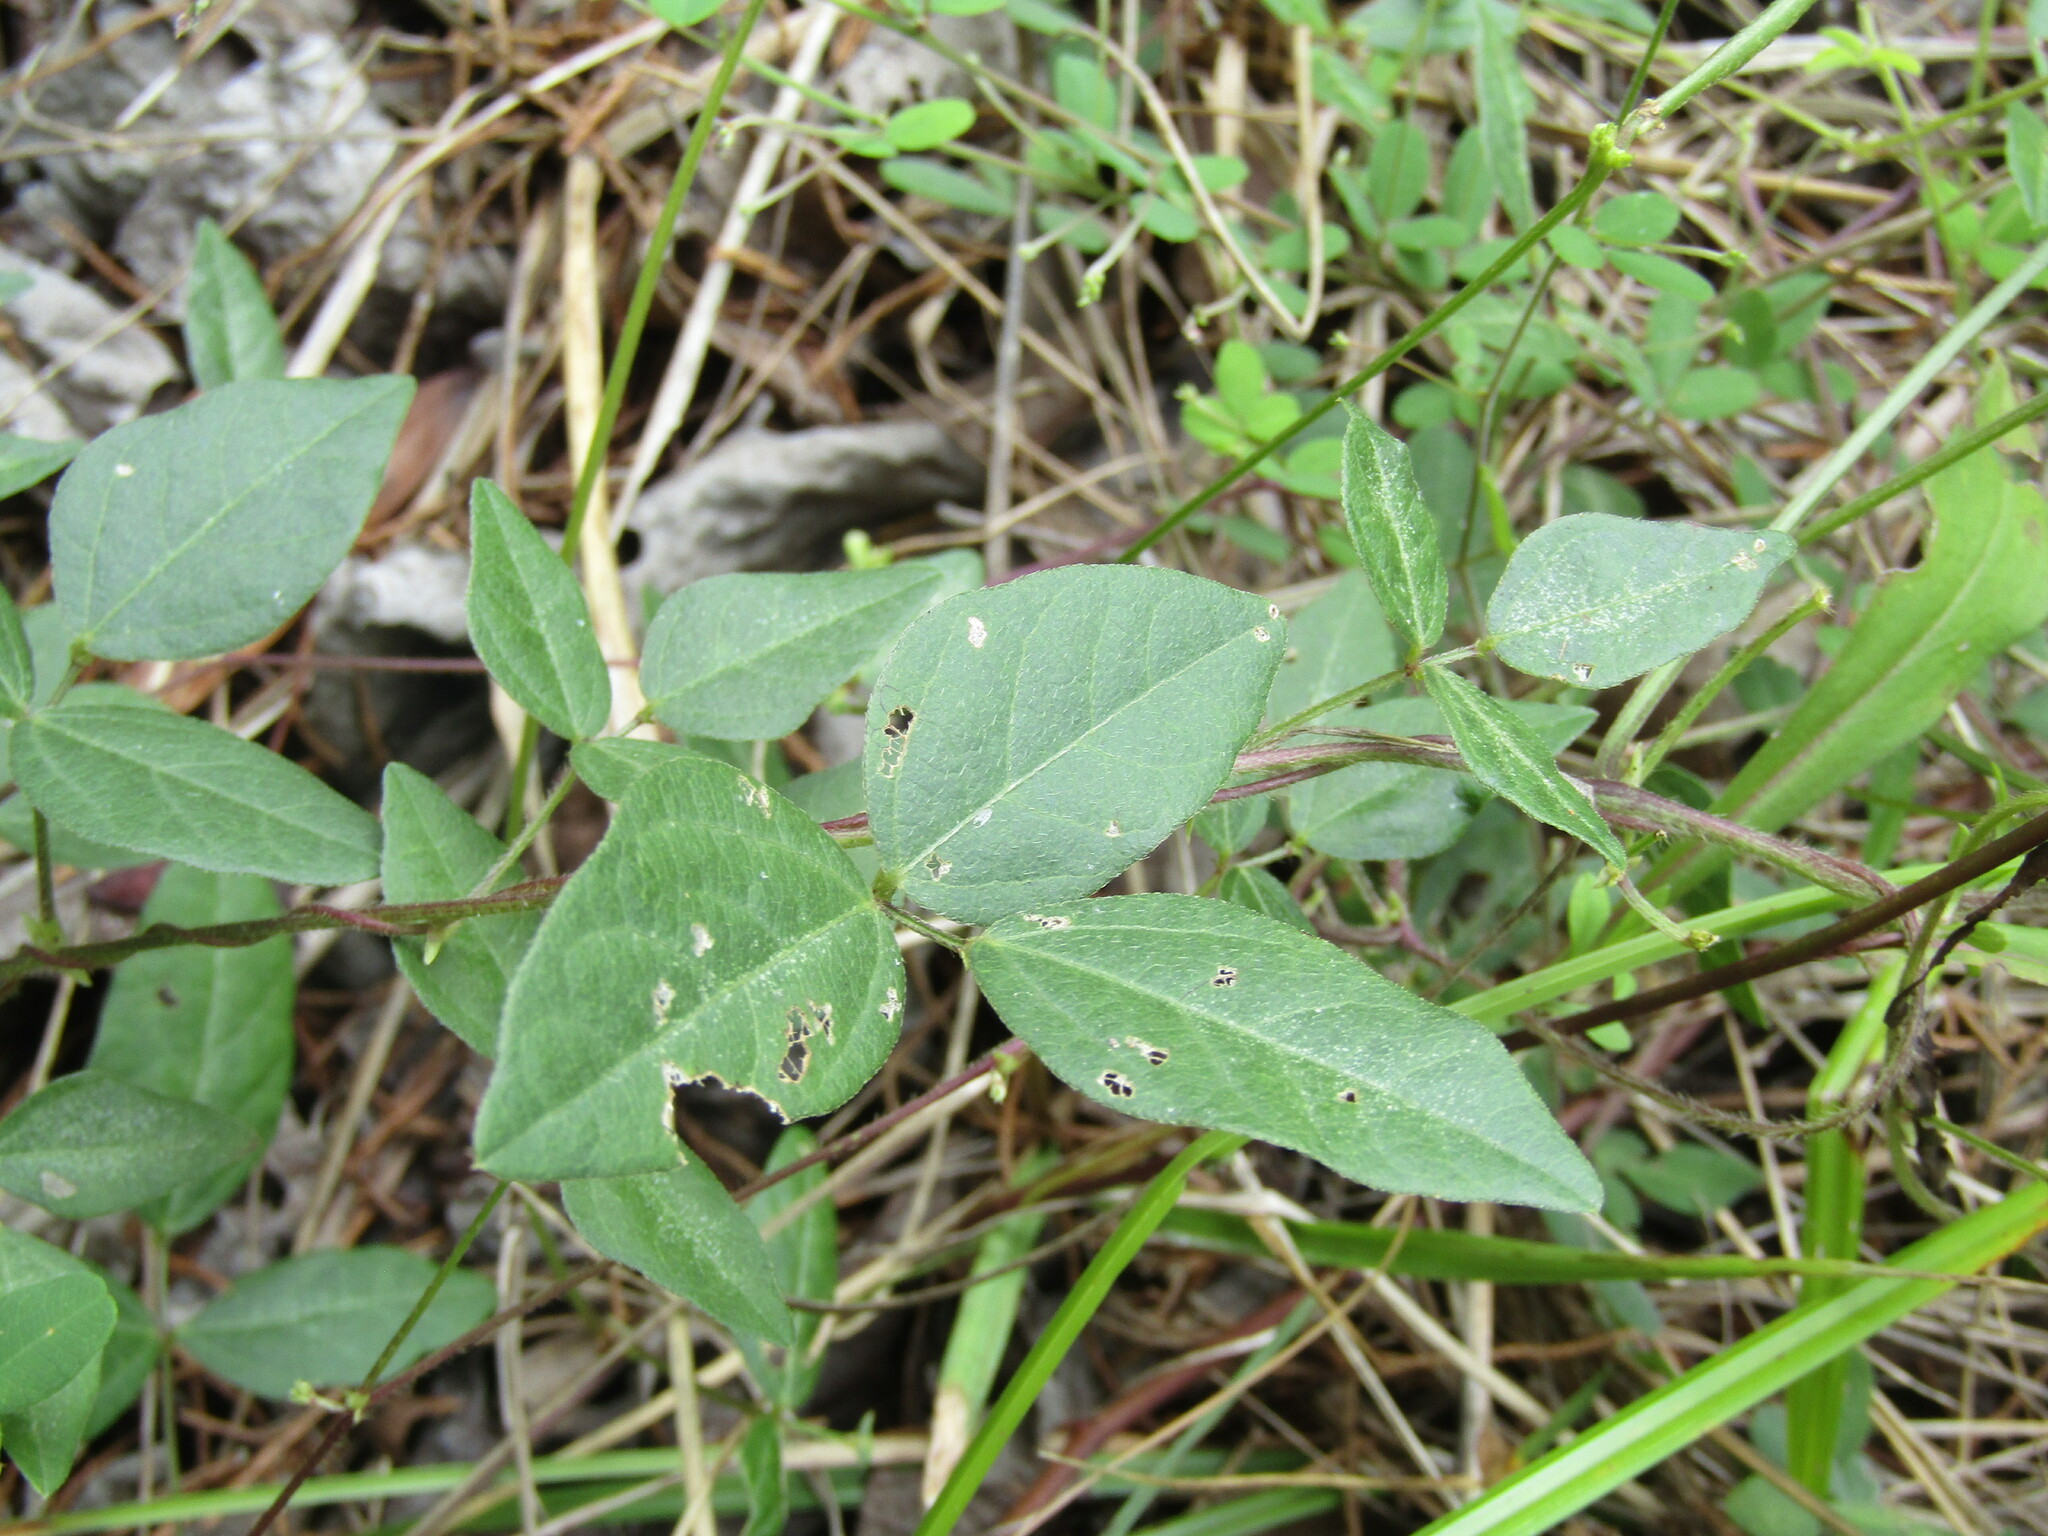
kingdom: Plantae
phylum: Tracheophyta
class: Magnoliopsida
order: Fabales
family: Fabaceae
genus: Strophostyles
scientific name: Strophostyles umbellata
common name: Perennial wild bean
